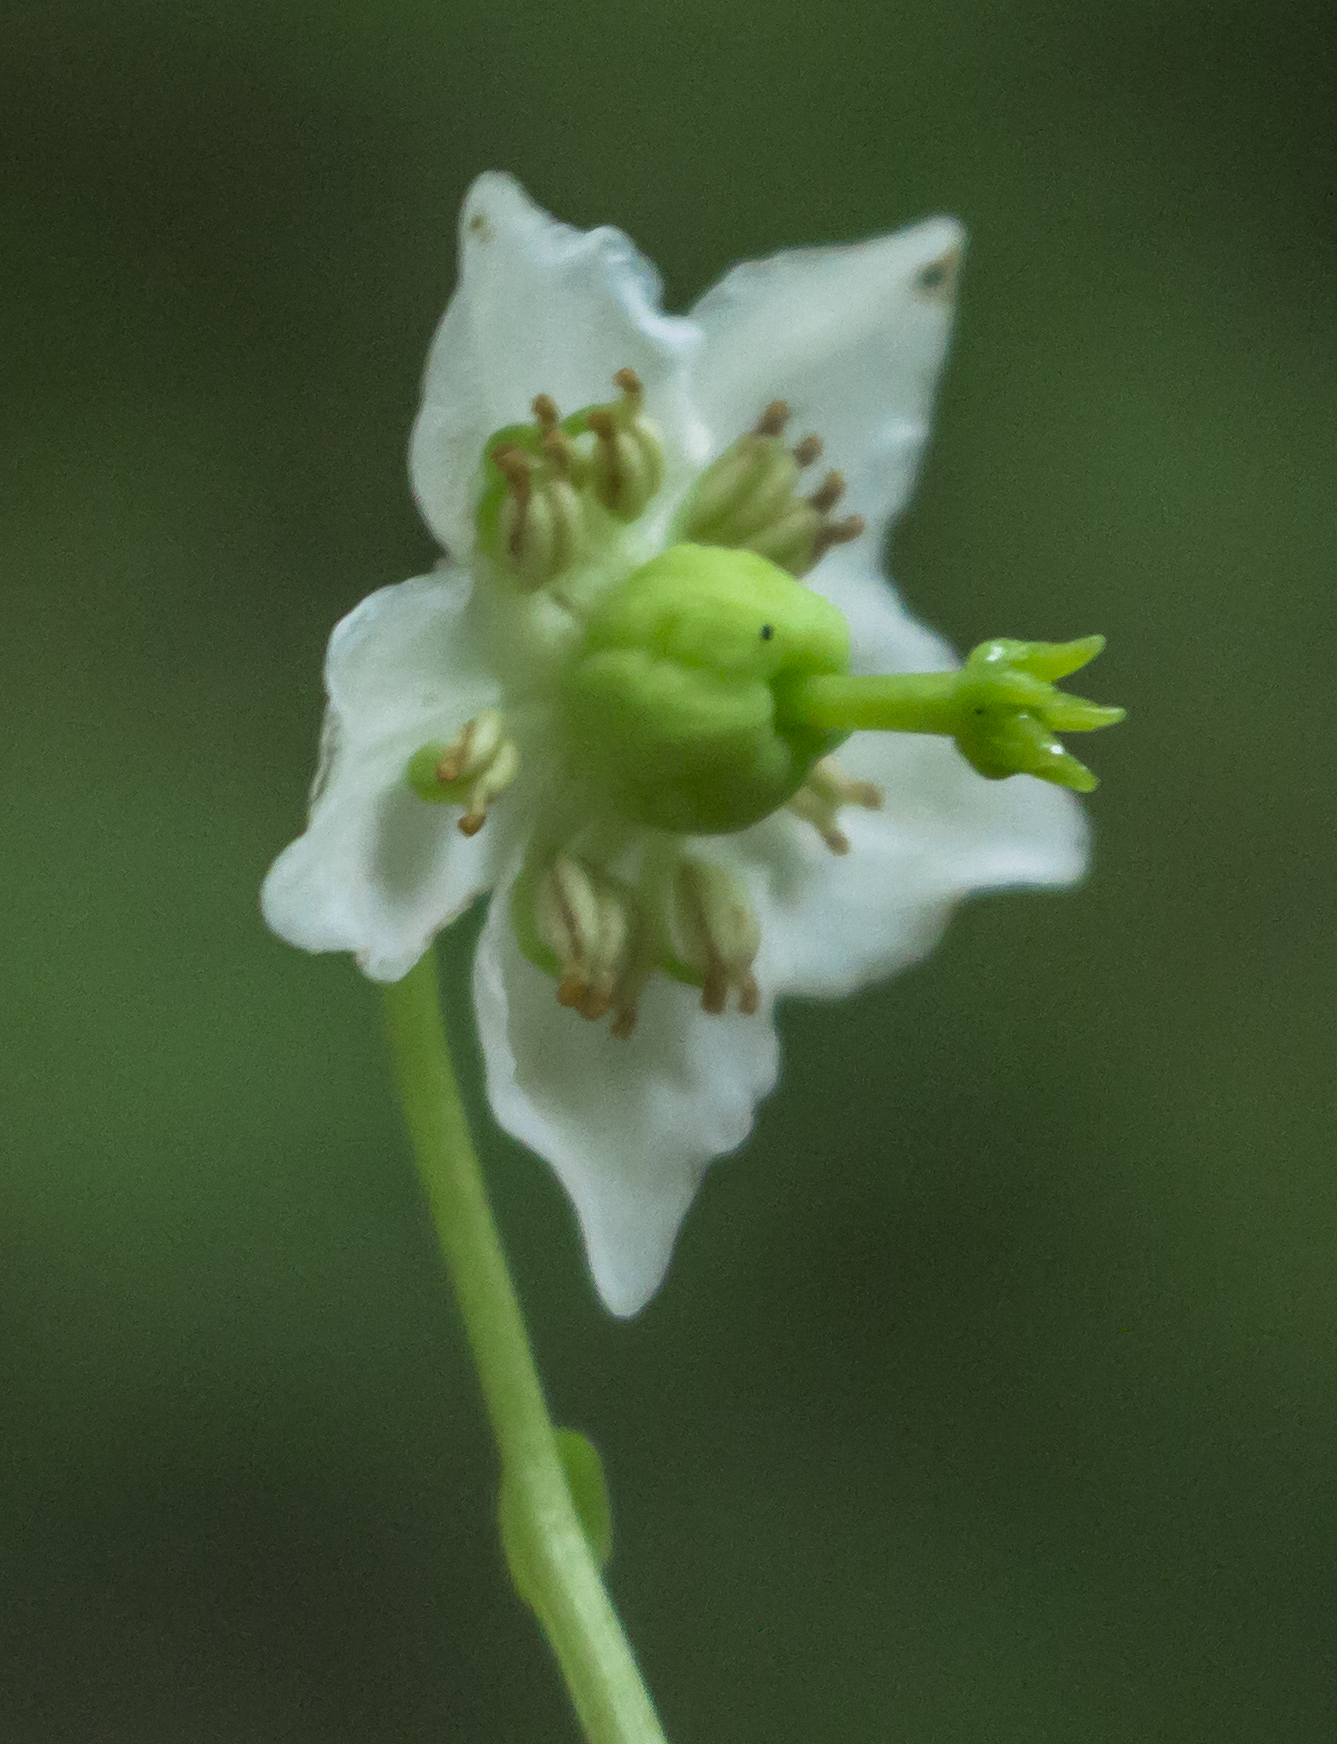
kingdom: Plantae
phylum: Tracheophyta
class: Magnoliopsida
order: Ericales
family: Ericaceae
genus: Moneses
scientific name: Moneses uniflora
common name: One-flowered wintergreen
